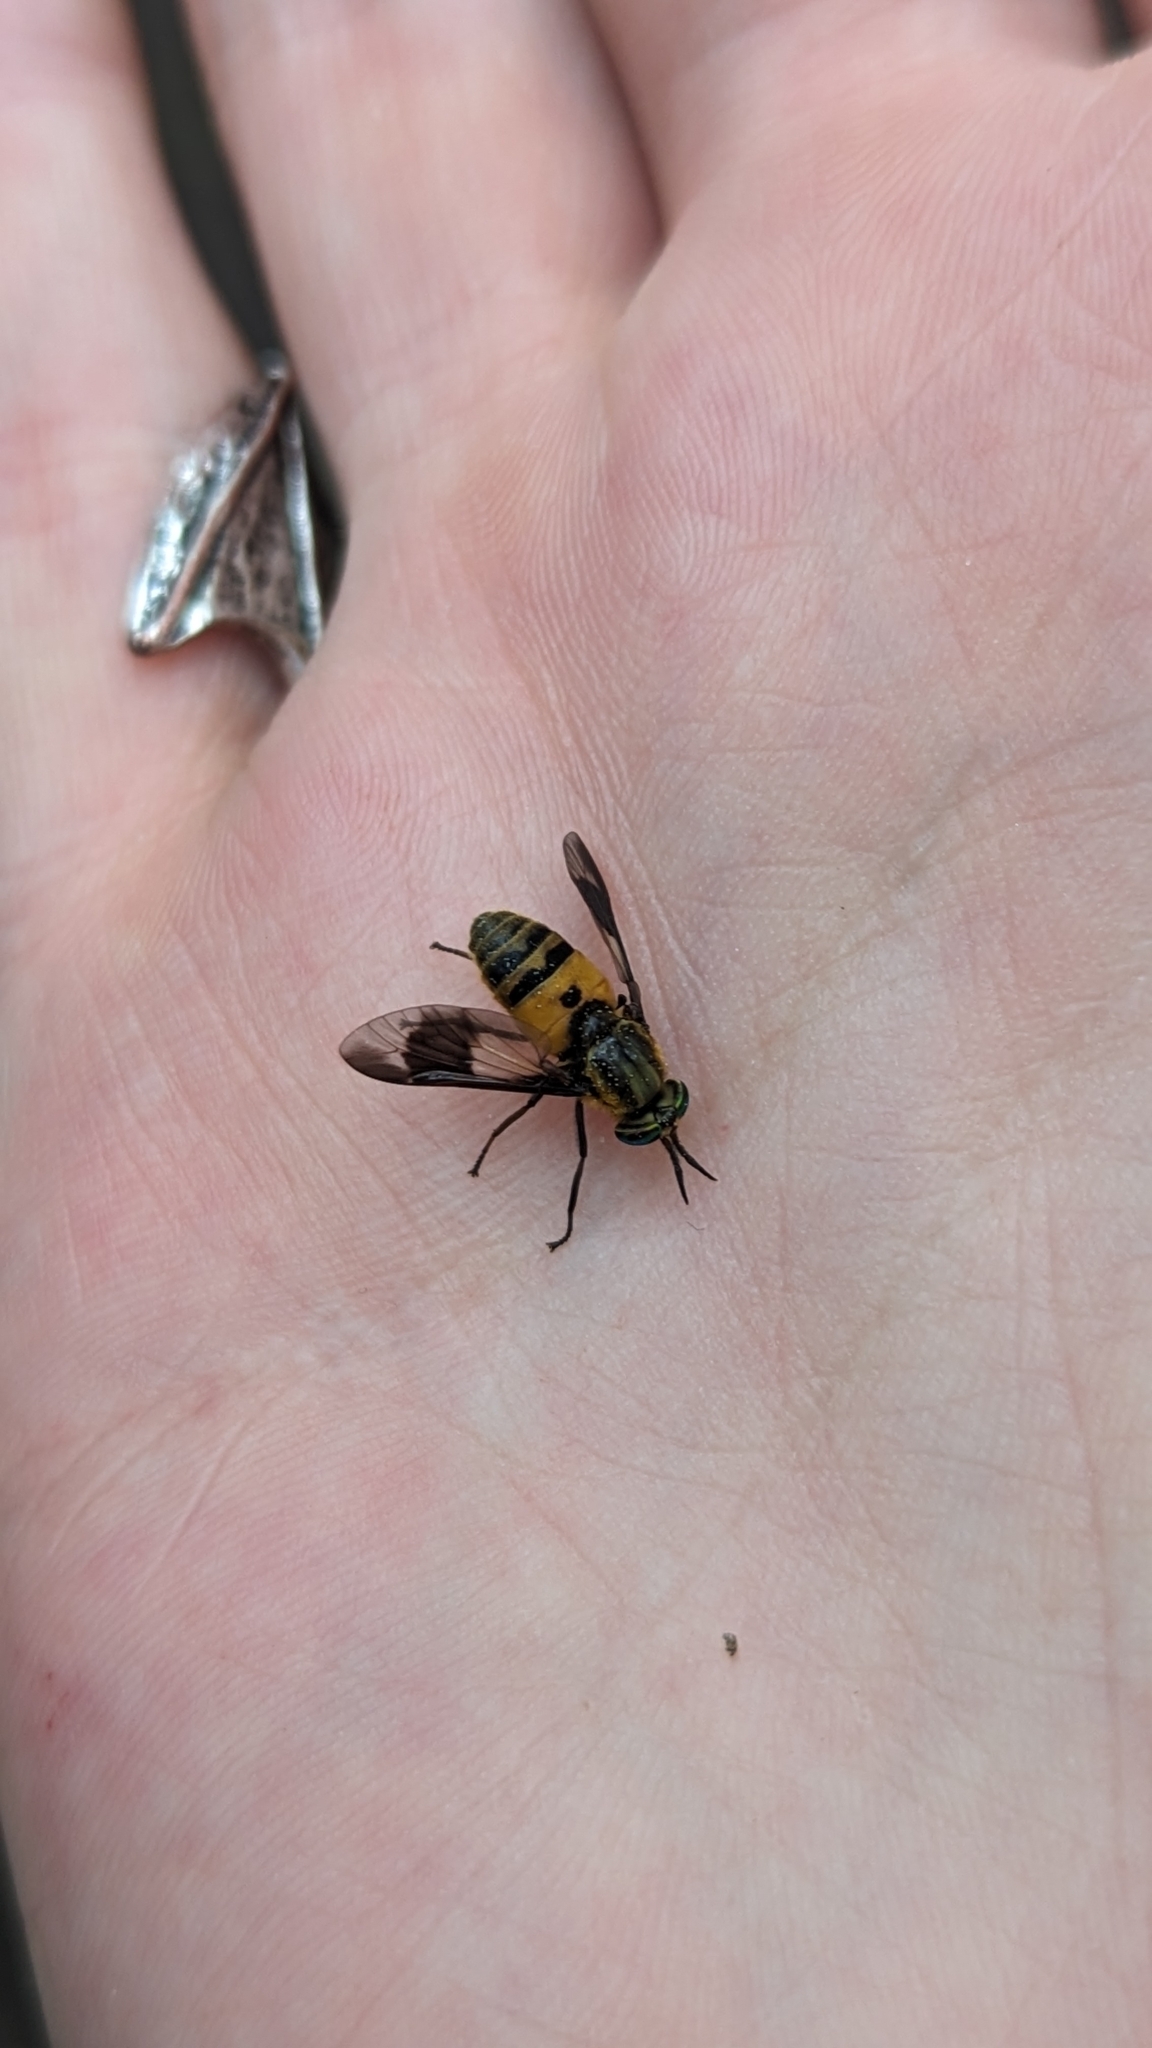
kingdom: Animalia
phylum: Arthropoda
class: Insecta
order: Diptera
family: Tabanidae
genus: Chrysops
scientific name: Chrysops viduatus
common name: Square-spot deerfly
